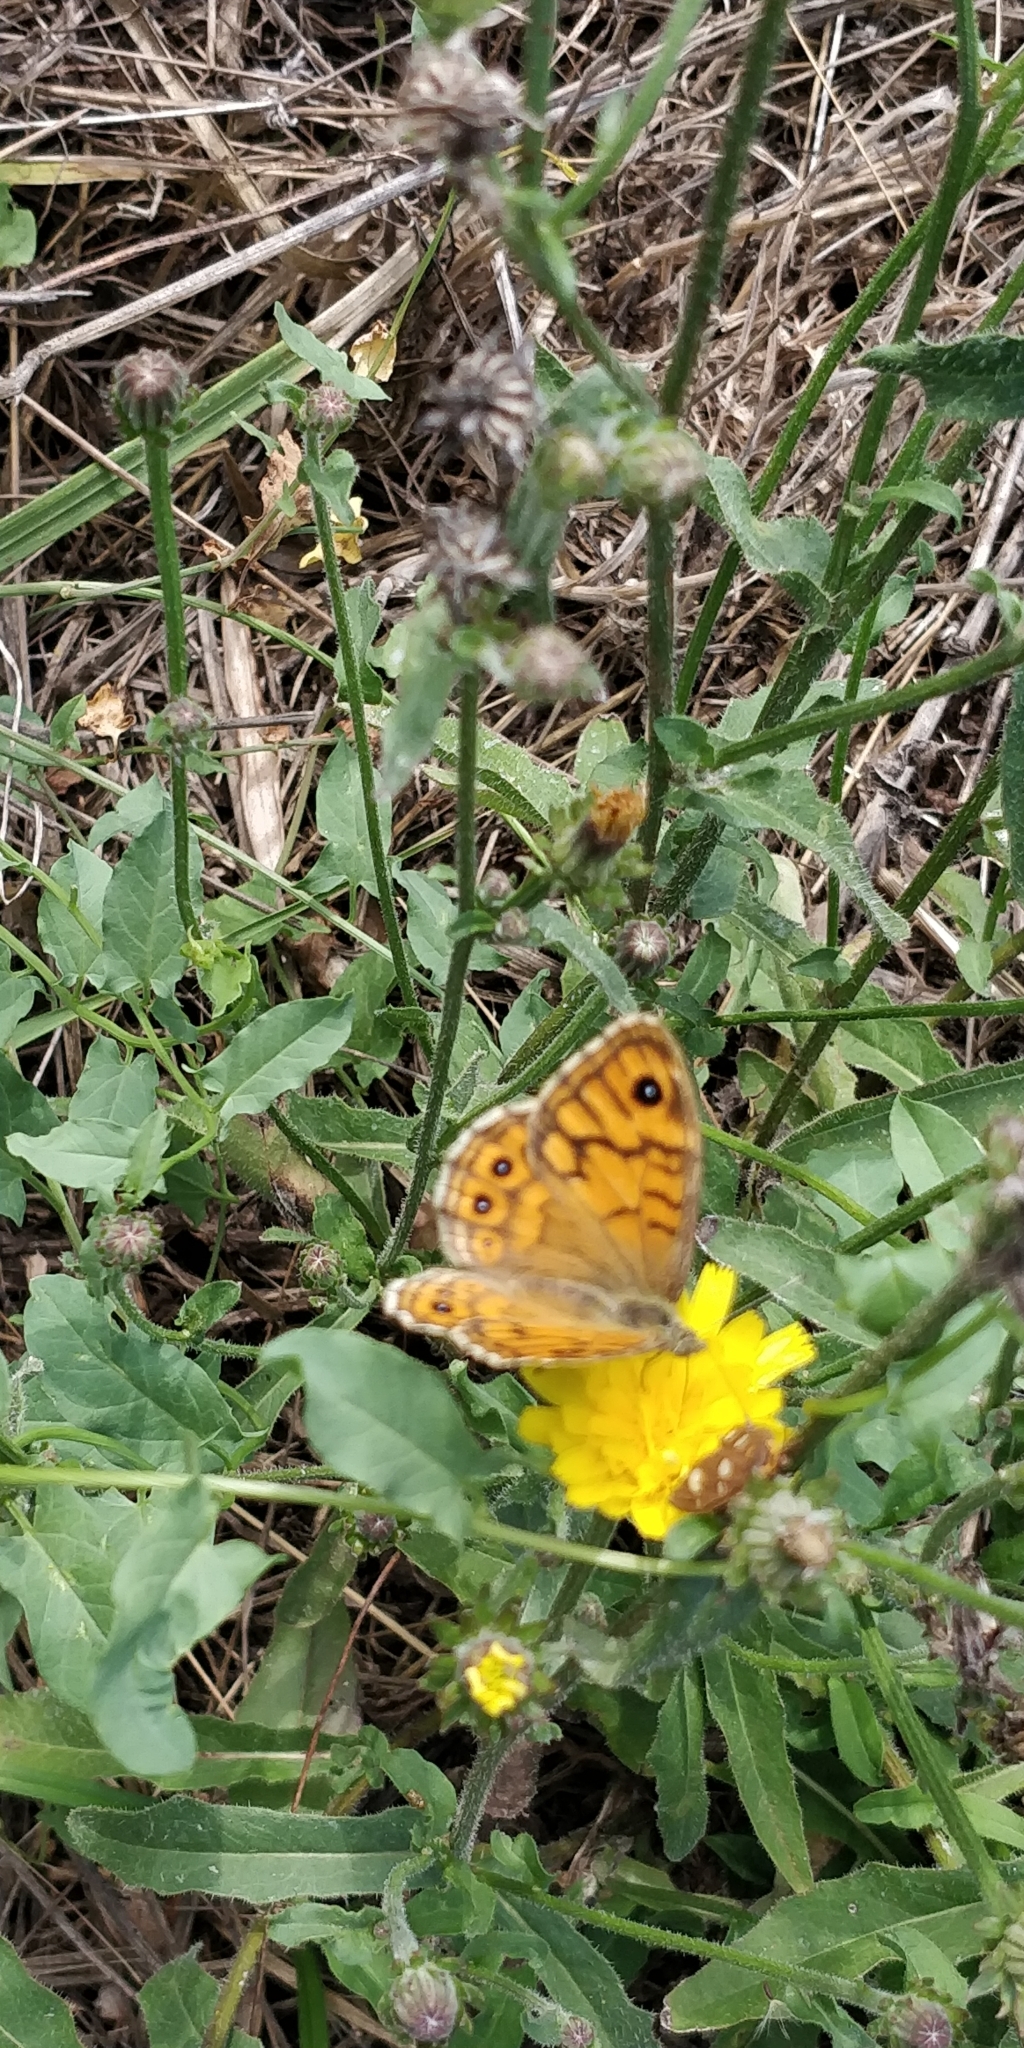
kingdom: Animalia
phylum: Arthropoda
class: Insecta
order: Lepidoptera
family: Nymphalidae
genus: Pararge
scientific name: Pararge Lasiommata megera
